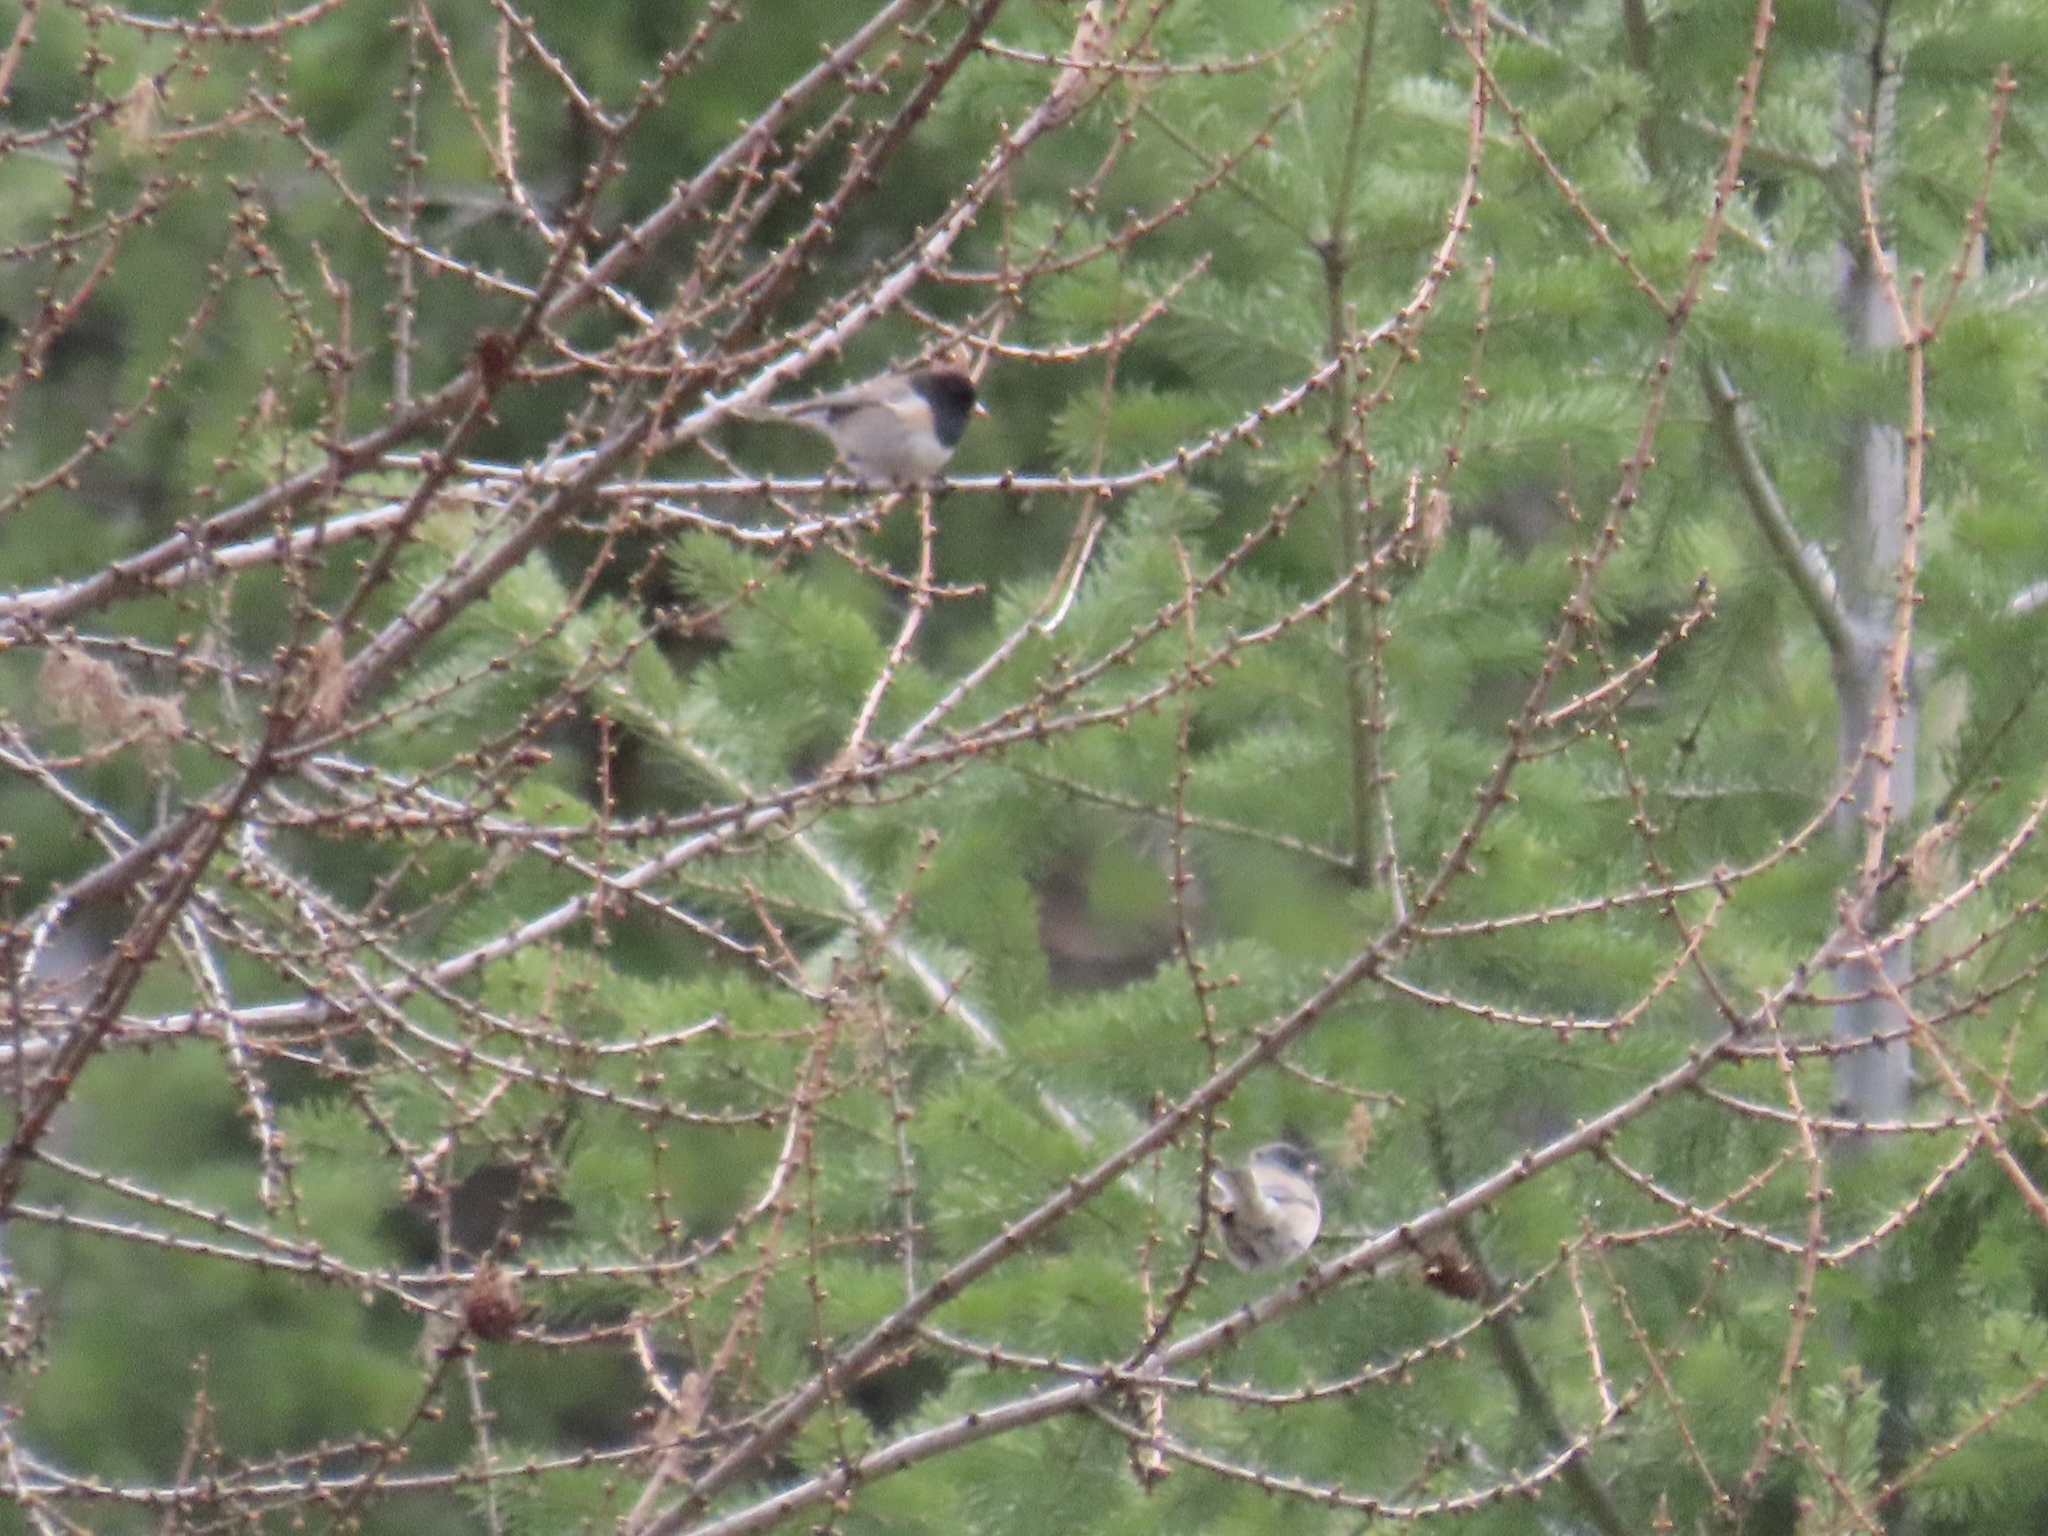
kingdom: Animalia
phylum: Chordata
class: Aves
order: Passeriformes
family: Passerellidae
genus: Junco
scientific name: Junco hyemalis
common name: Dark-eyed junco
